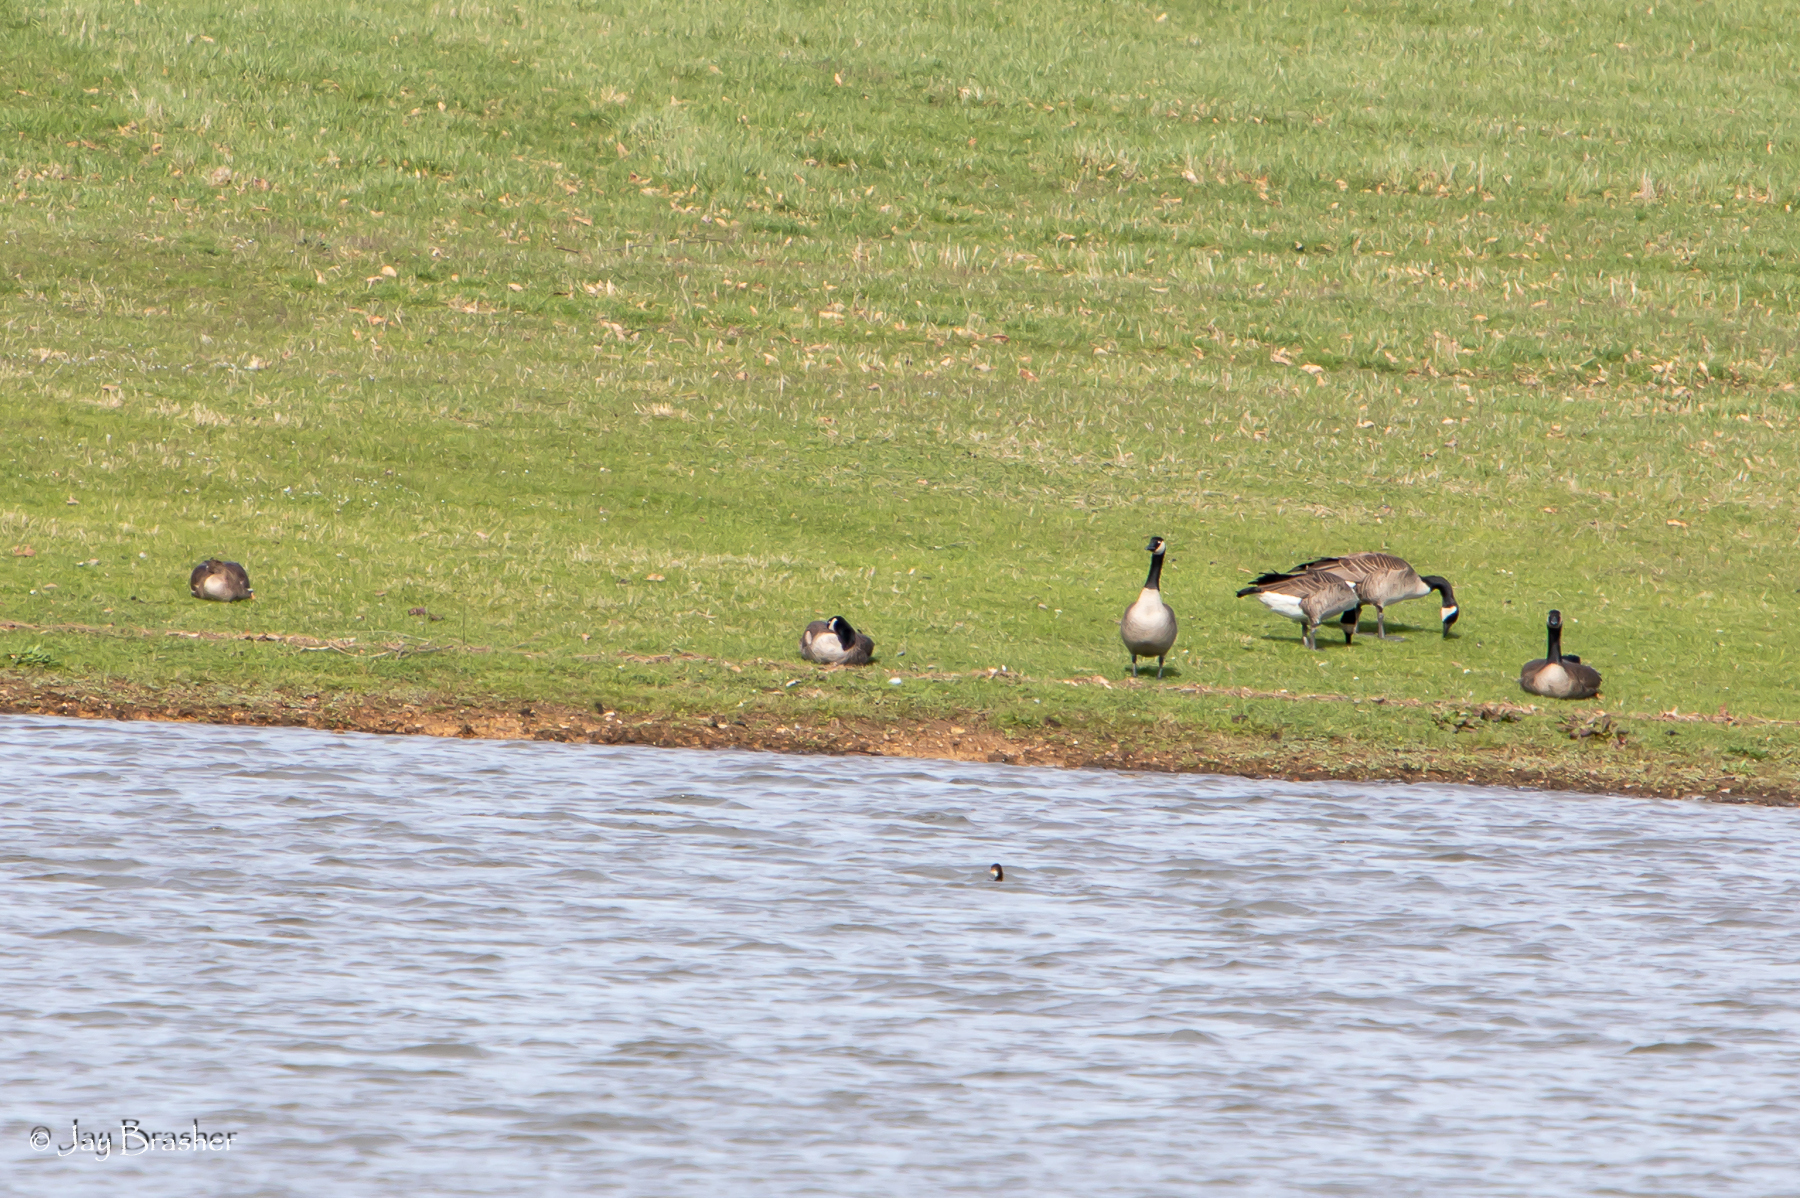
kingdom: Animalia
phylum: Chordata
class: Aves
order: Anseriformes
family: Anatidae
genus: Branta
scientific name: Branta canadensis
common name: Canada goose
